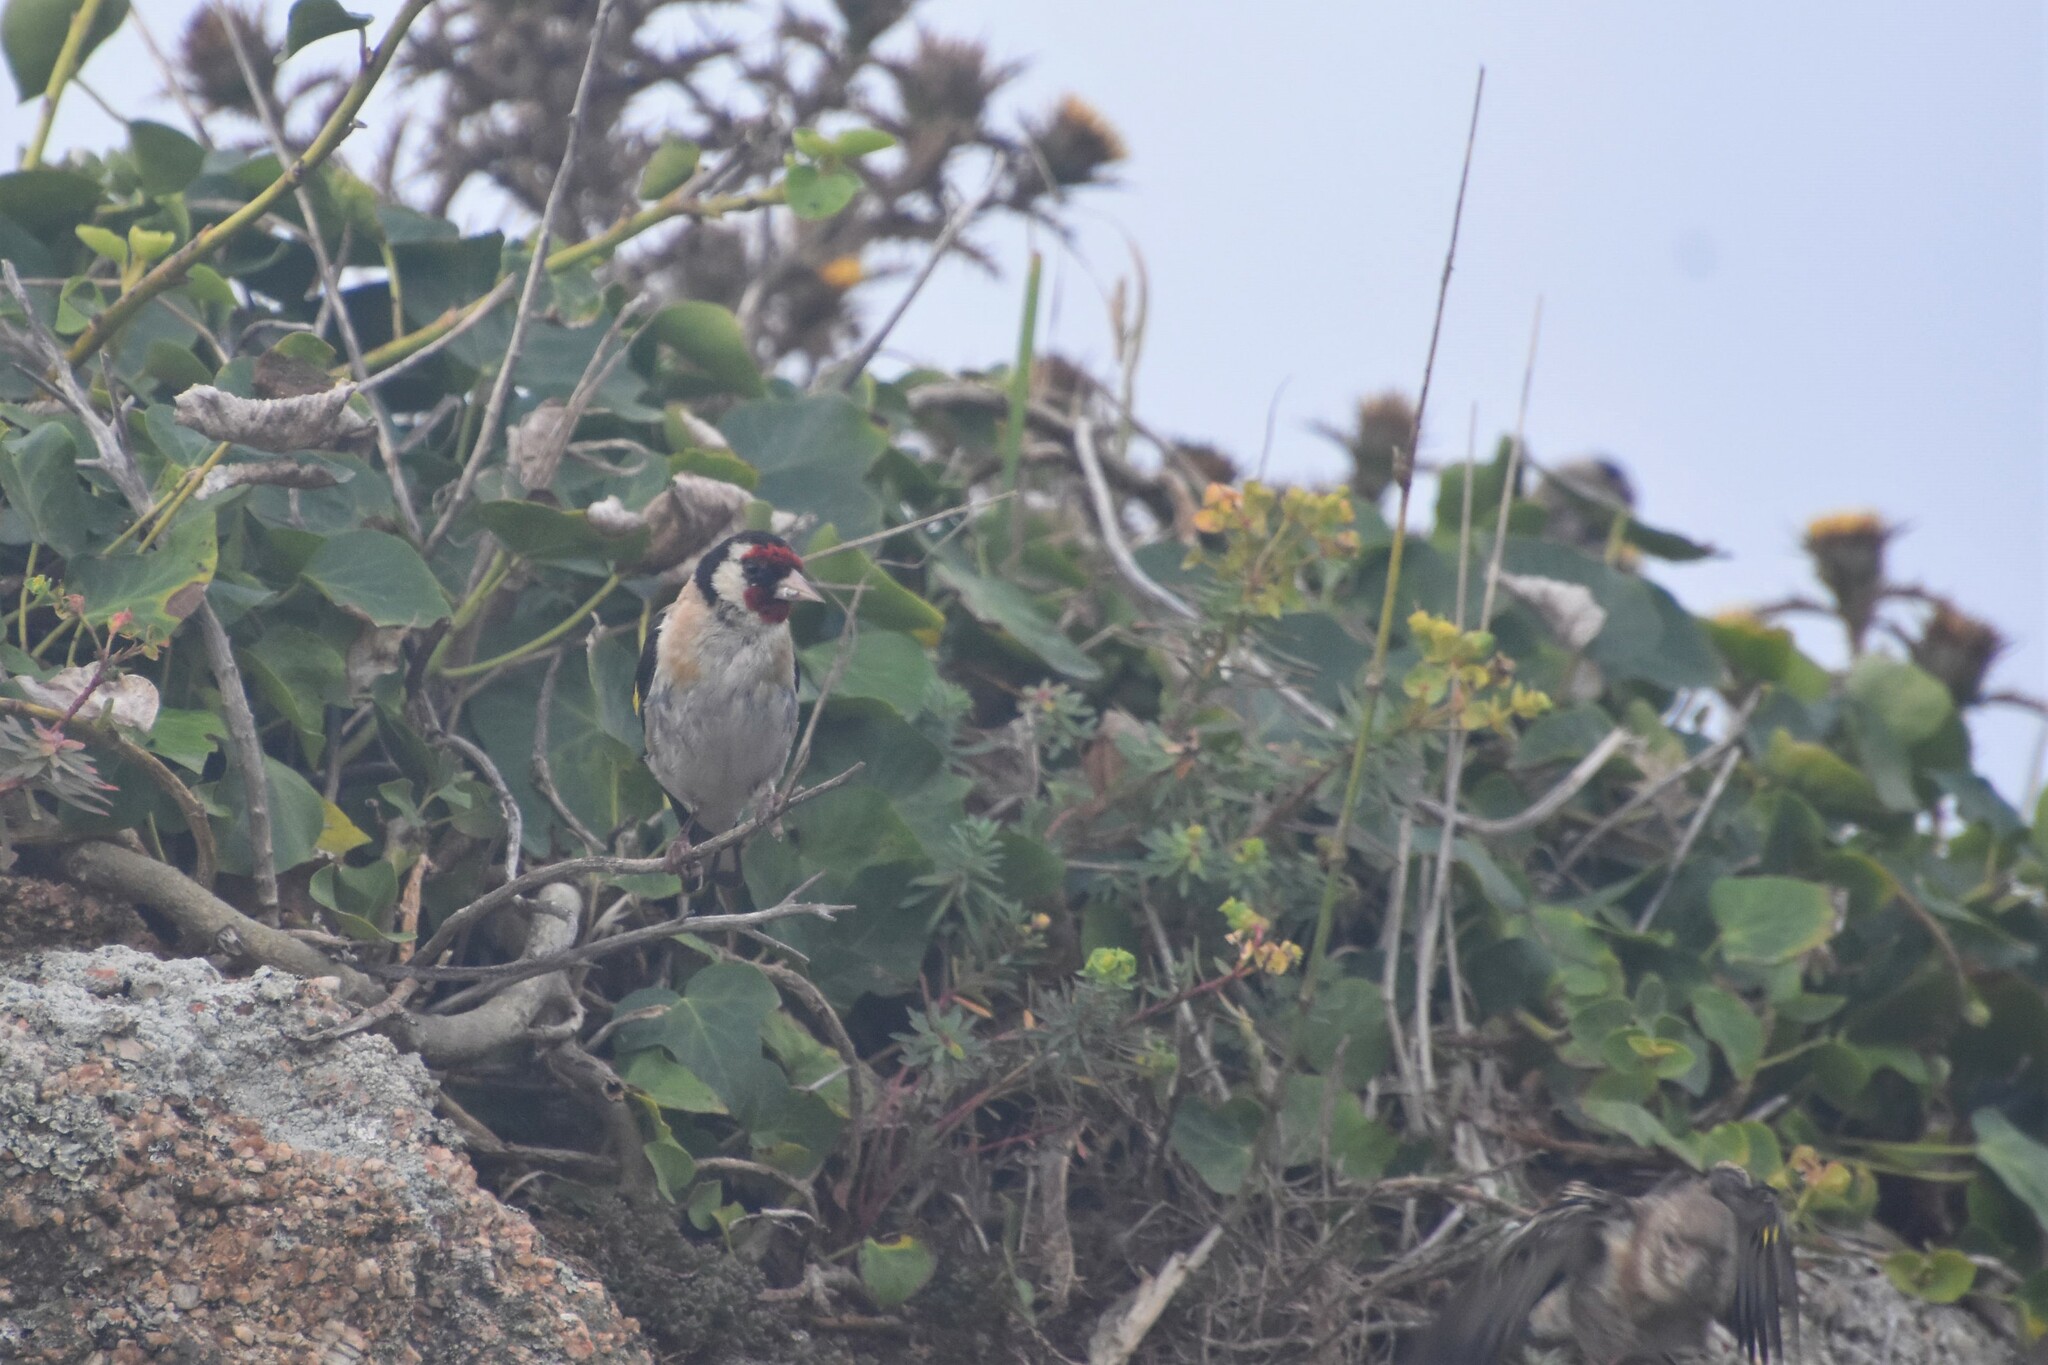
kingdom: Animalia
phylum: Chordata
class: Aves
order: Passeriformes
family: Fringillidae
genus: Carduelis
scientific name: Carduelis carduelis
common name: European goldfinch
